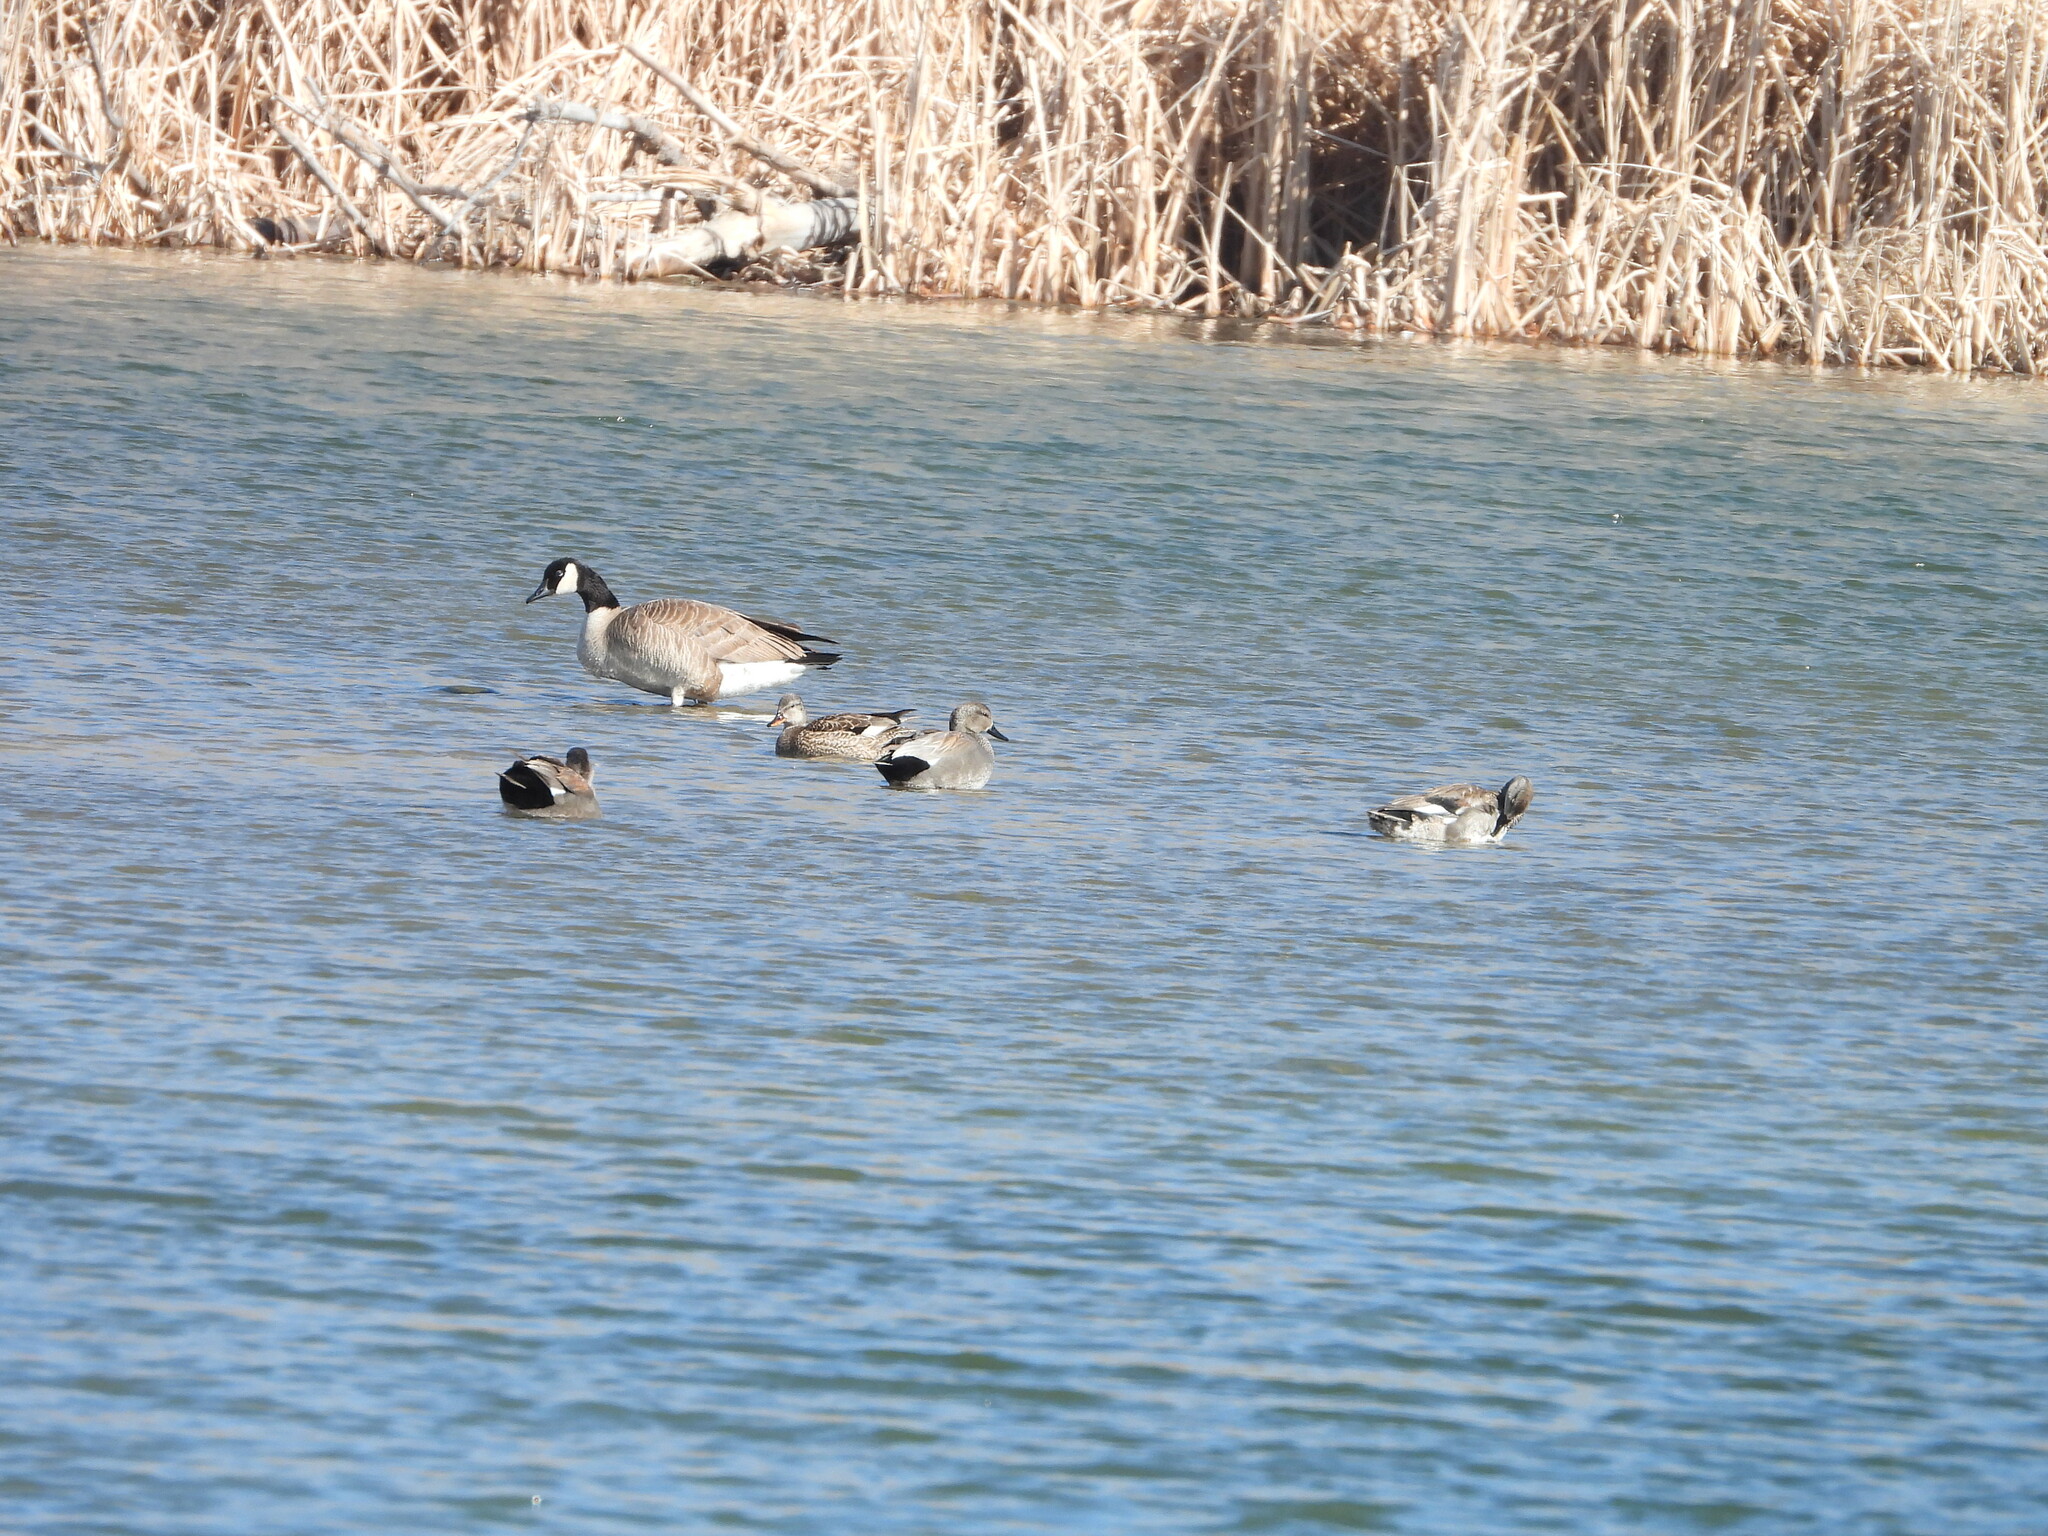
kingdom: Animalia
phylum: Chordata
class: Aves
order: Anseriformes
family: Anatidae
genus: Mareca
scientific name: Mareca strepera
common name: Gadwall
